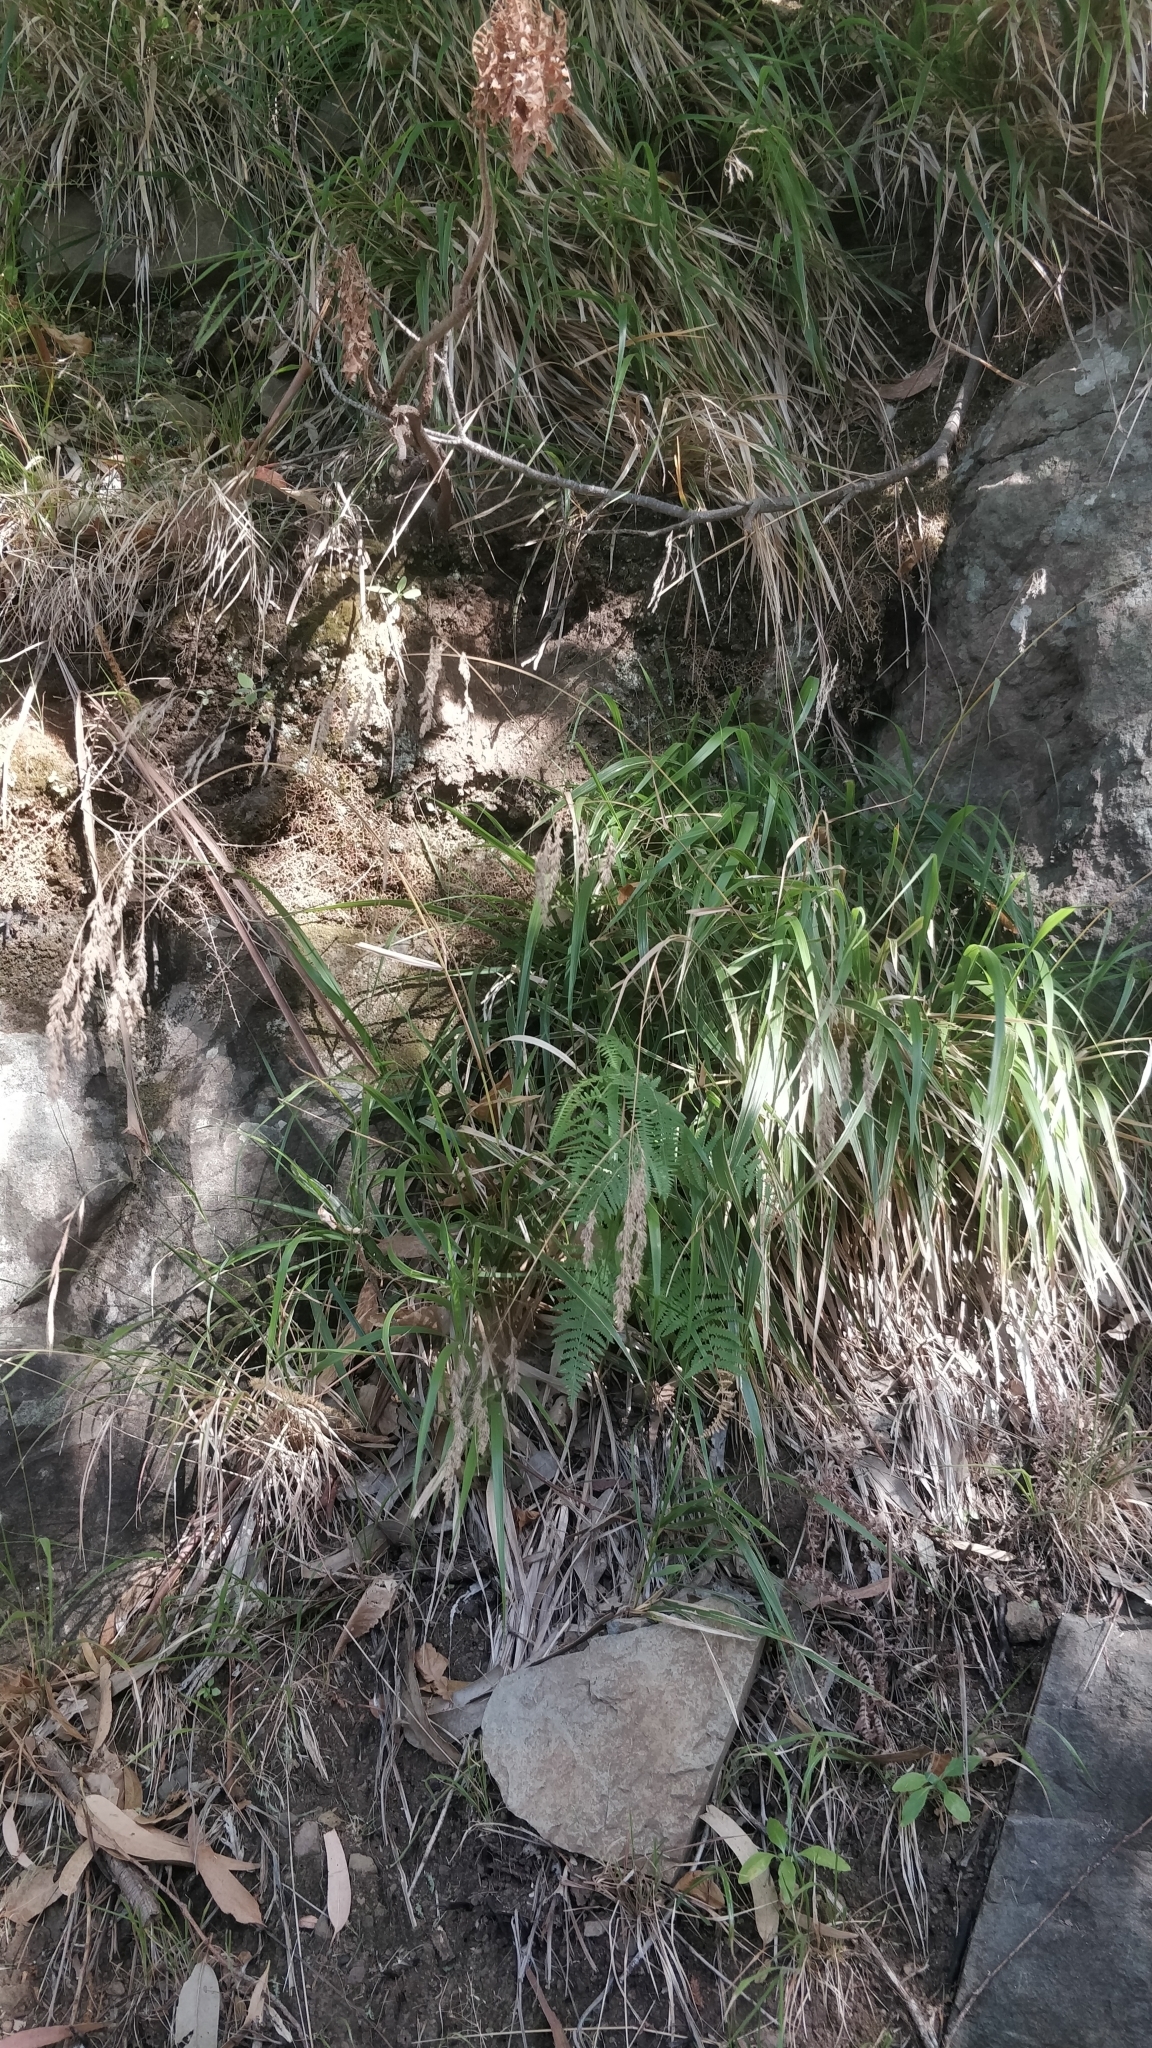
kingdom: Plantae
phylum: Tracheophyta
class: Liliopsida
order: Poales
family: Poaceae
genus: Festuca
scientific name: Festuca donax
